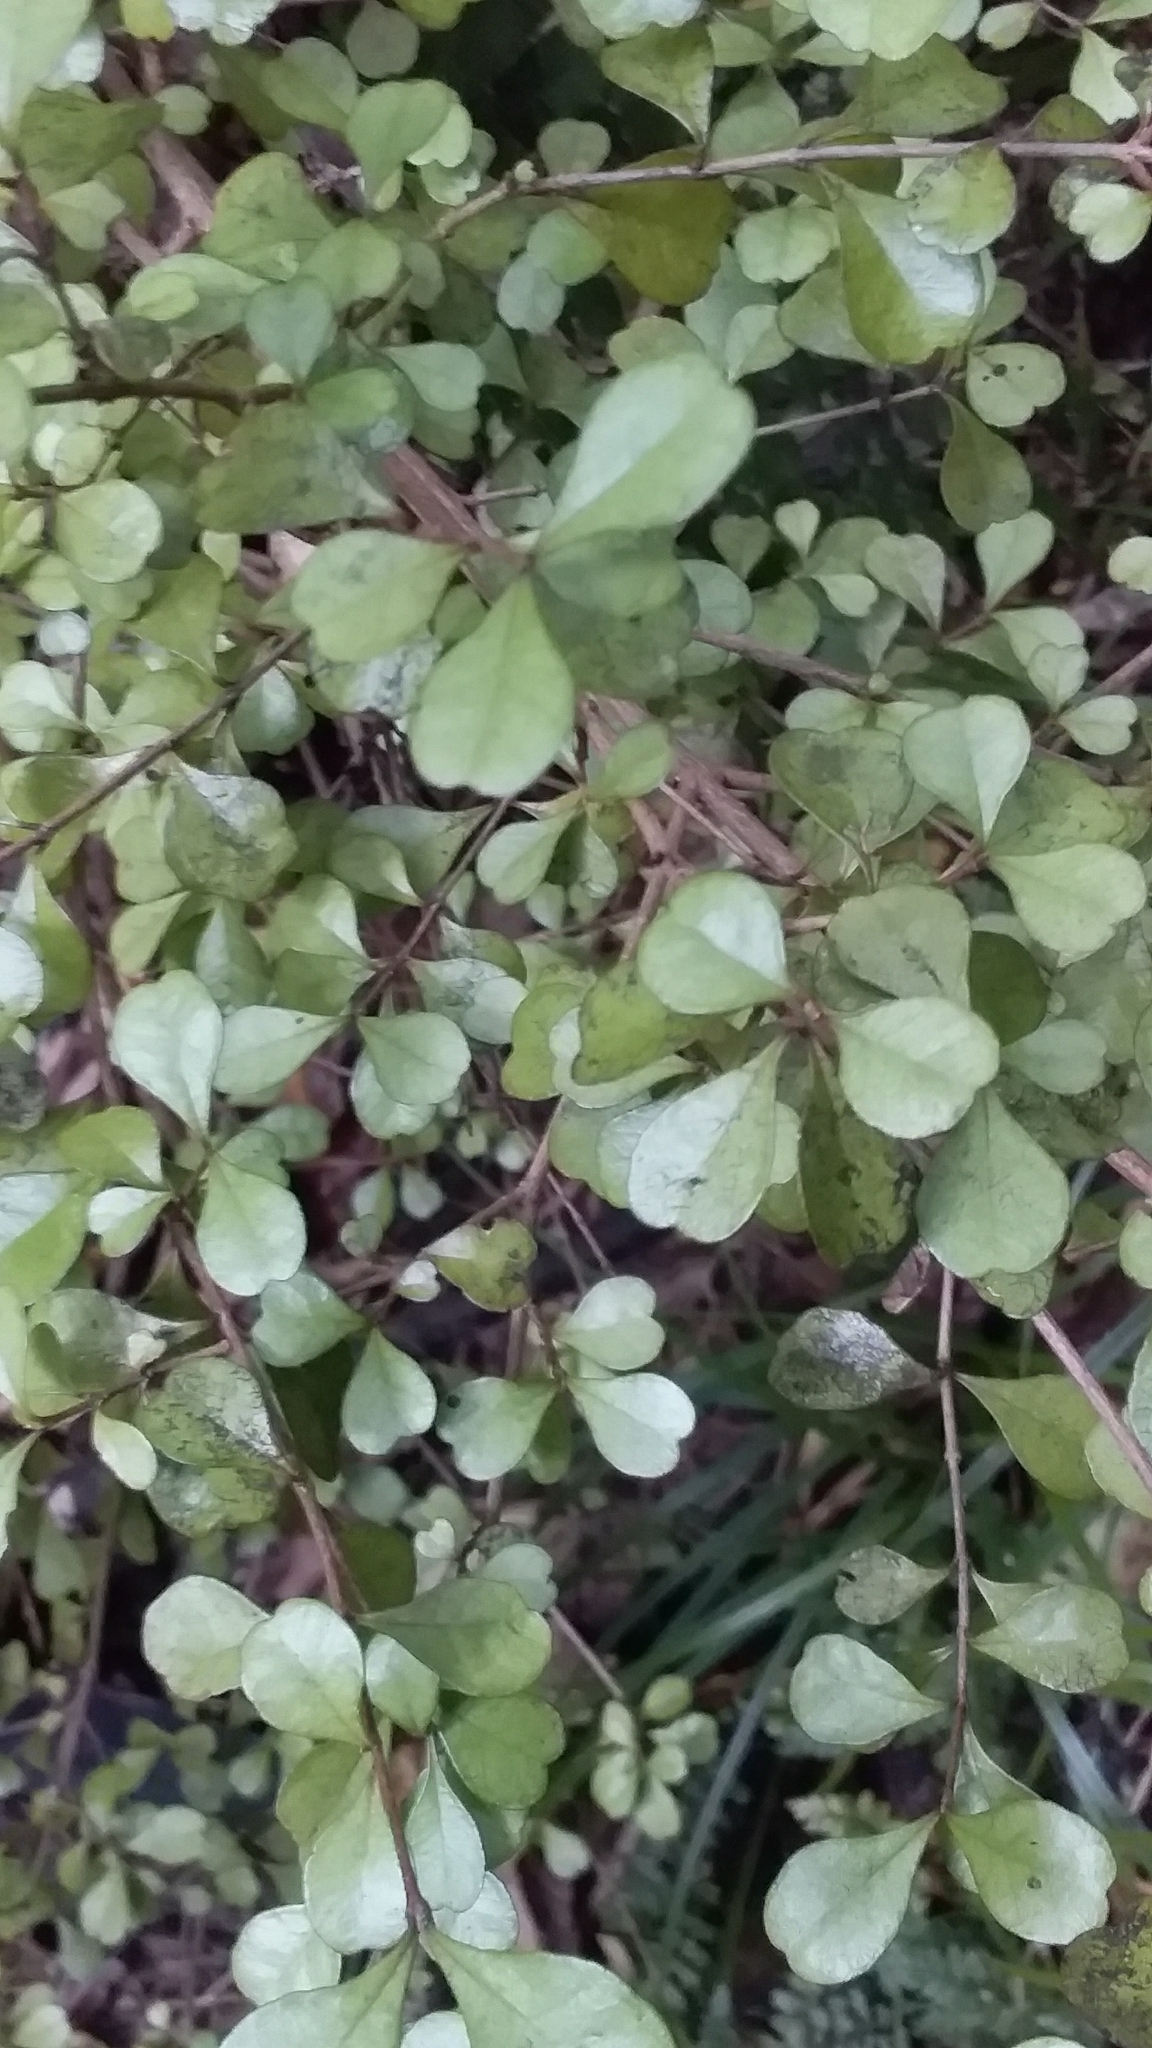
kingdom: Plantae
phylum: Tracheophyta
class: Magnoliopsida
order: Myrtales
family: Myrtaceae
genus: Lophomyrtus
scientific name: Lophomyrtus obcordata
